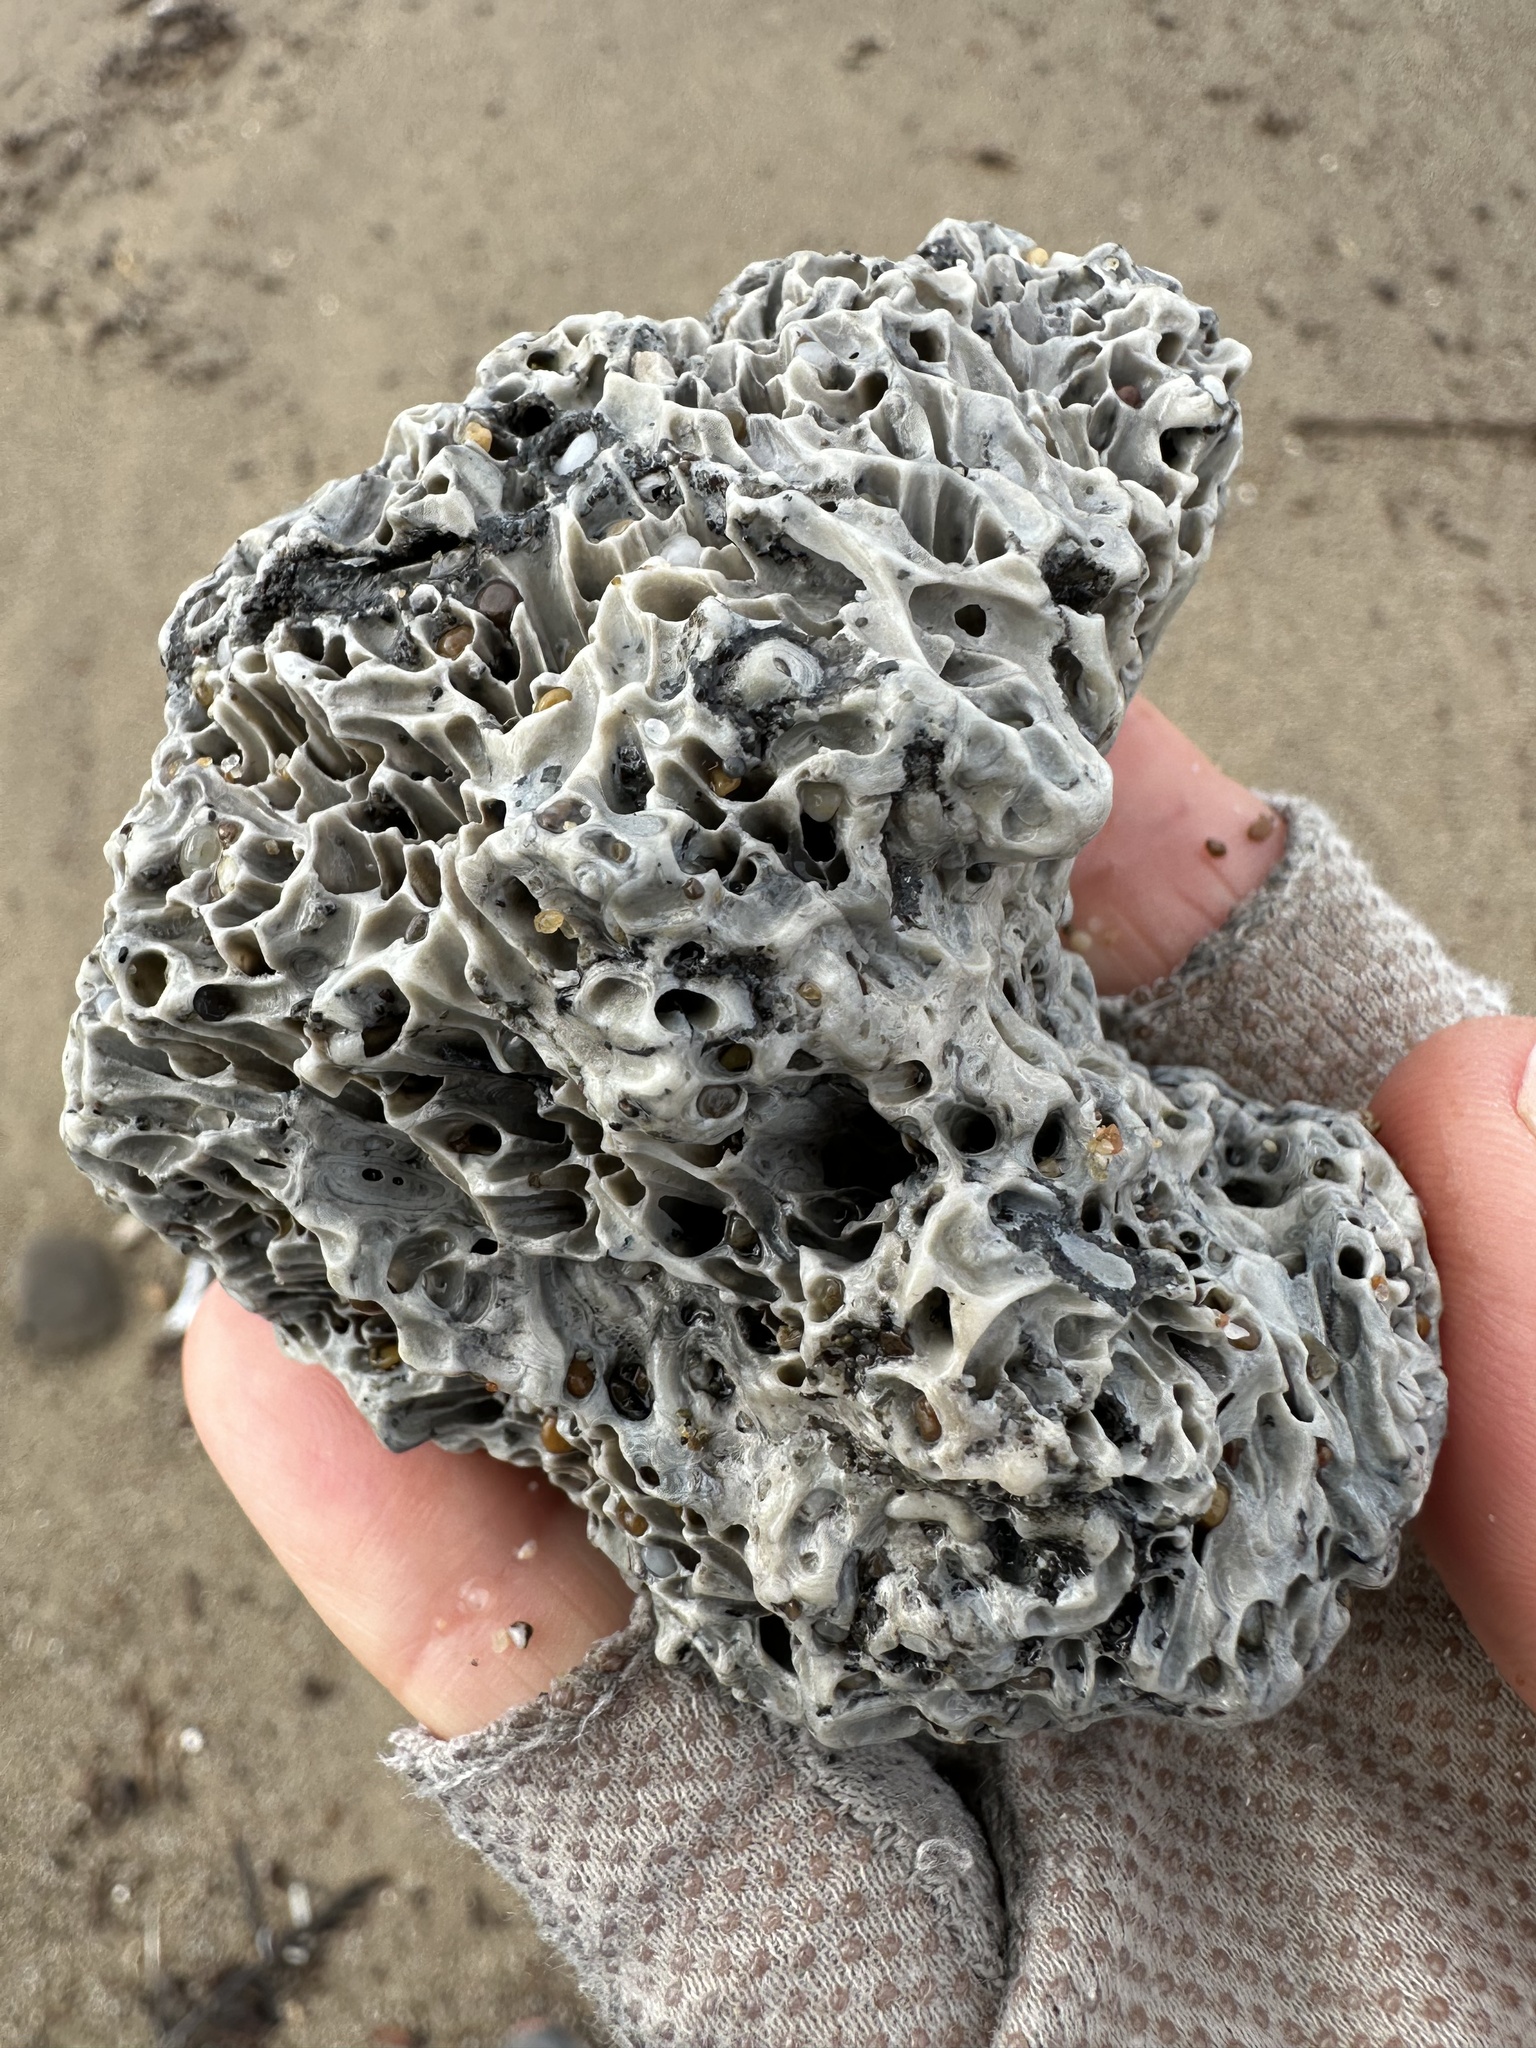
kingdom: Animalia
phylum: Annelida
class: Polychaeta
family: Cirratulidae
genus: Dodecaceria
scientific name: Dodecaceria pacifica
